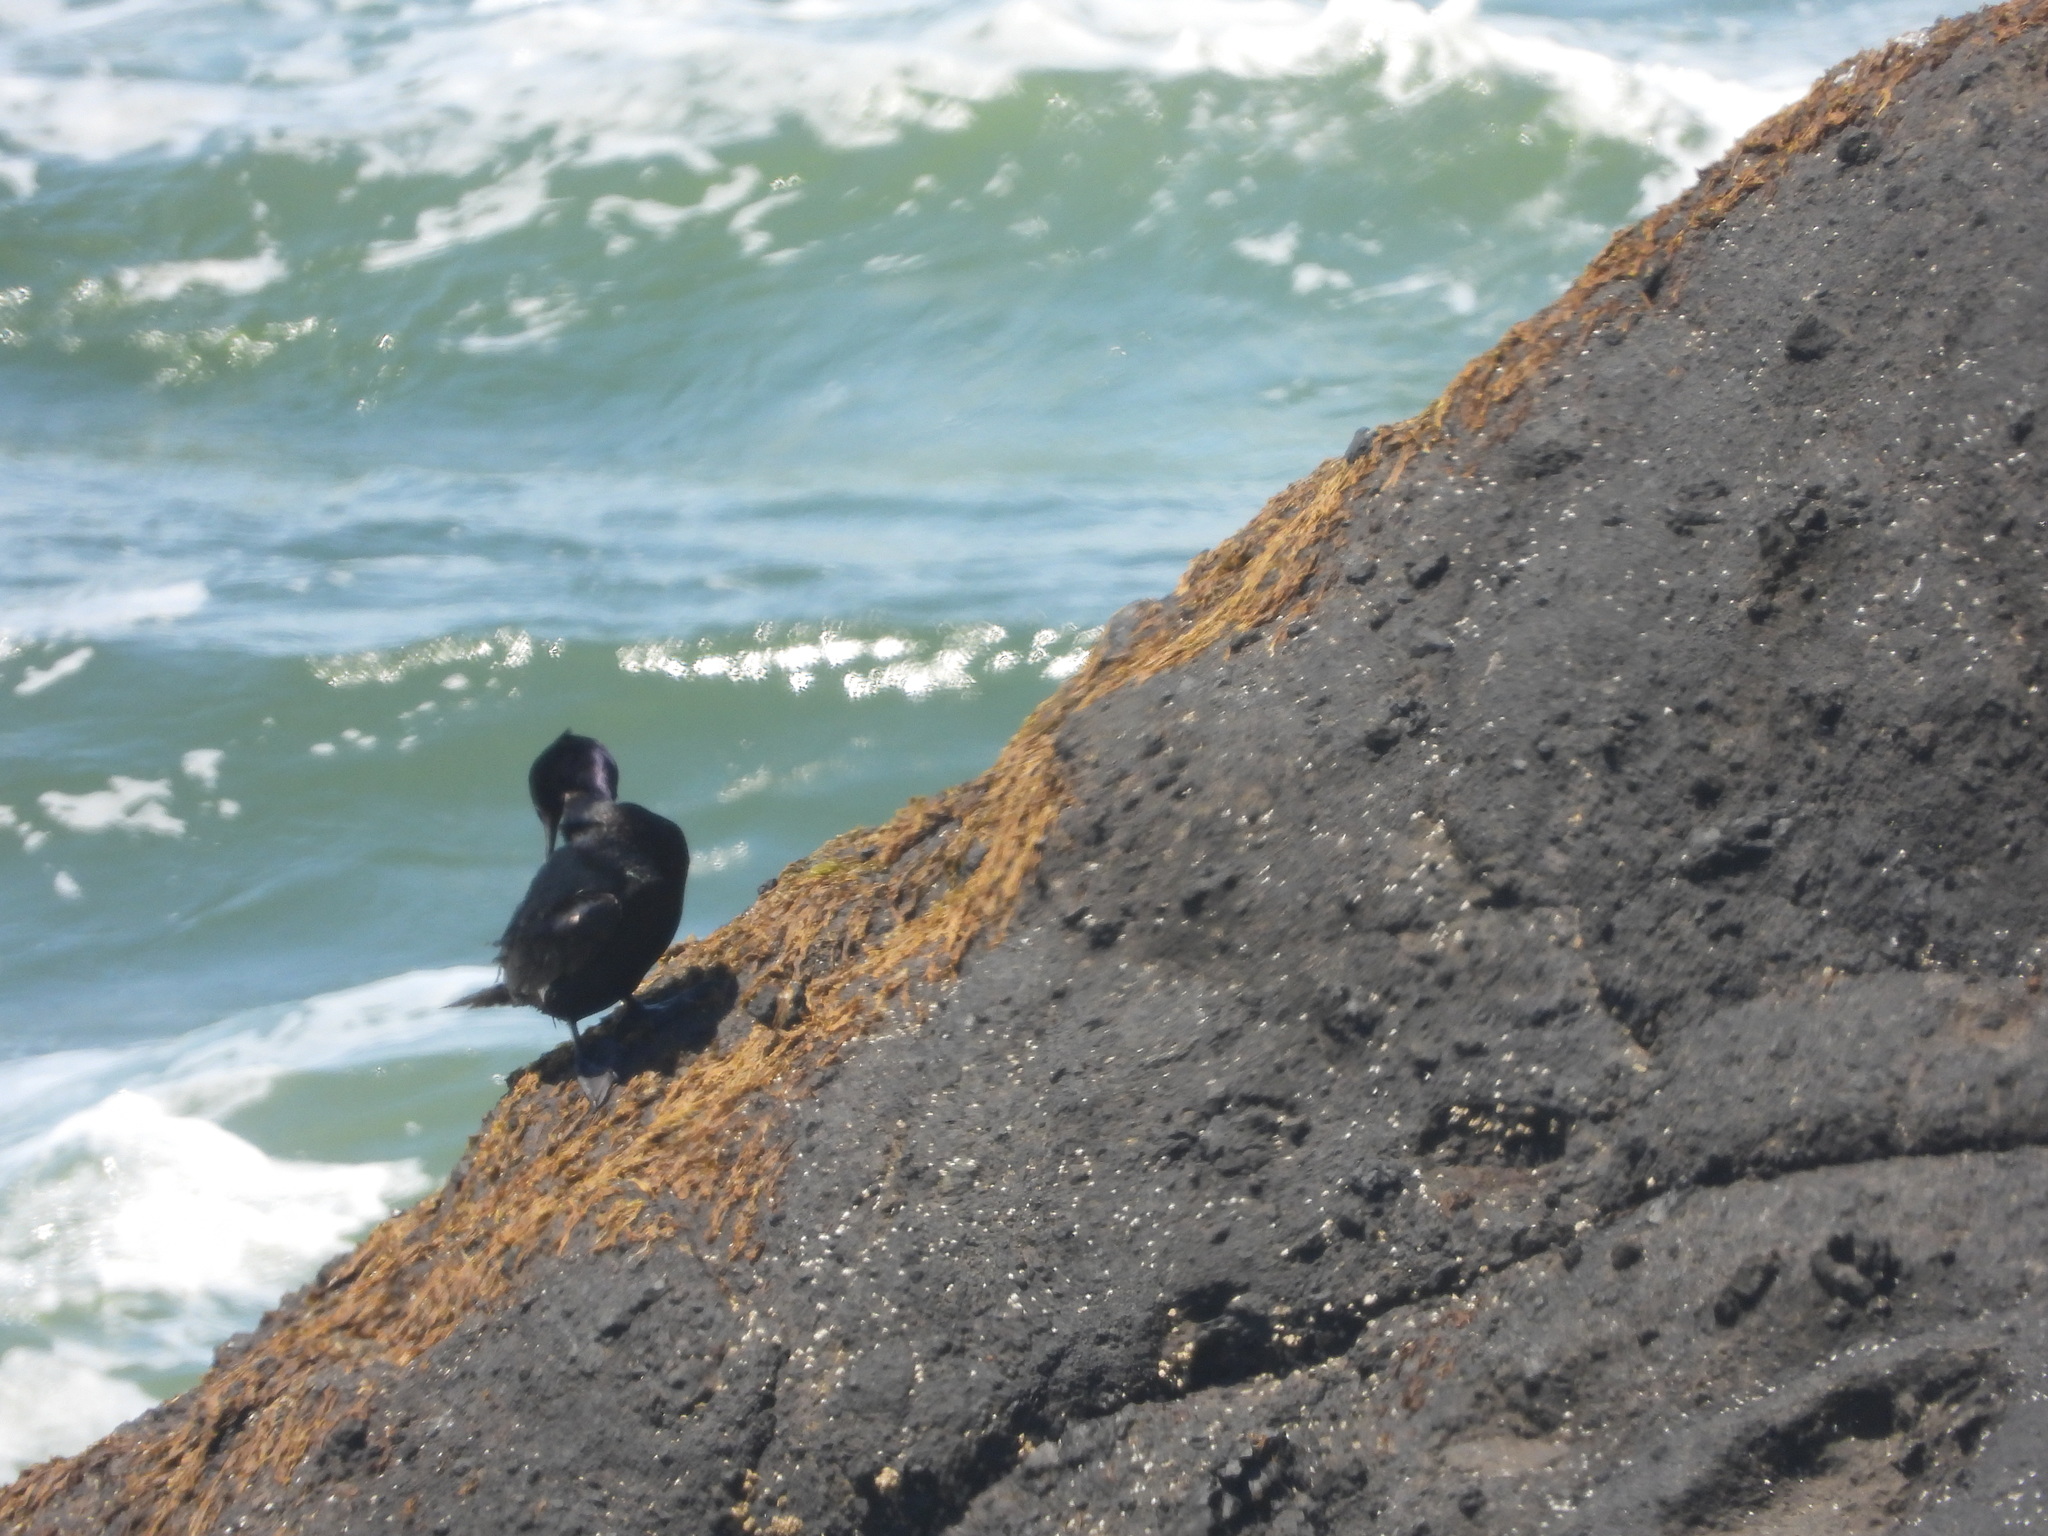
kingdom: Animalia
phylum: Chordata
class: Aves
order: Suliformes
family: Phalacrocoracidae
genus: Phalacrocorax
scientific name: Phalacrocorax pelagicus
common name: Pelagic cormorant
